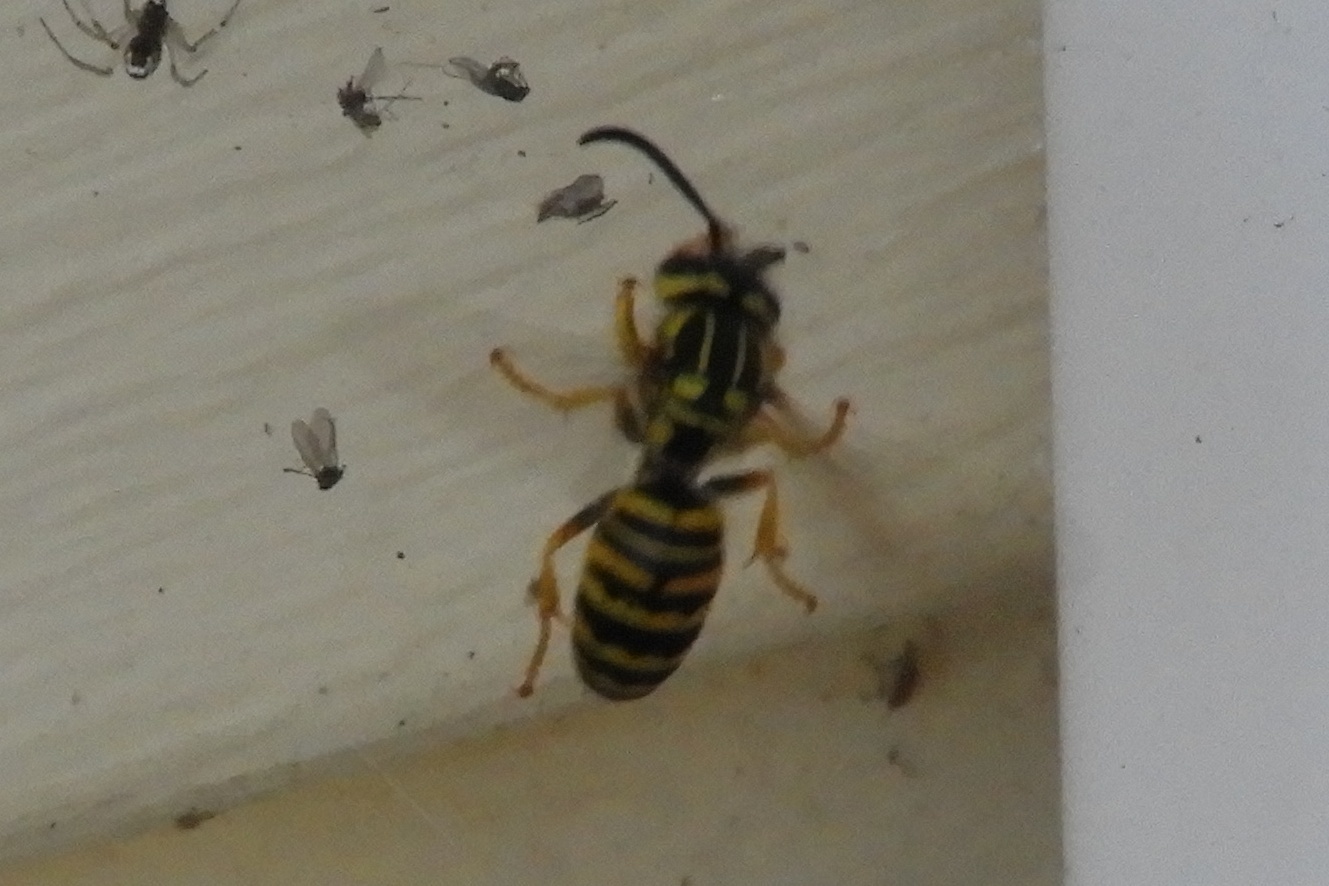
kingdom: Animalia
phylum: Arthropoda
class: Insecta
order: Hymenoptera
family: Vespidae
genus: Vespula
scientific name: Vespula squamosa
